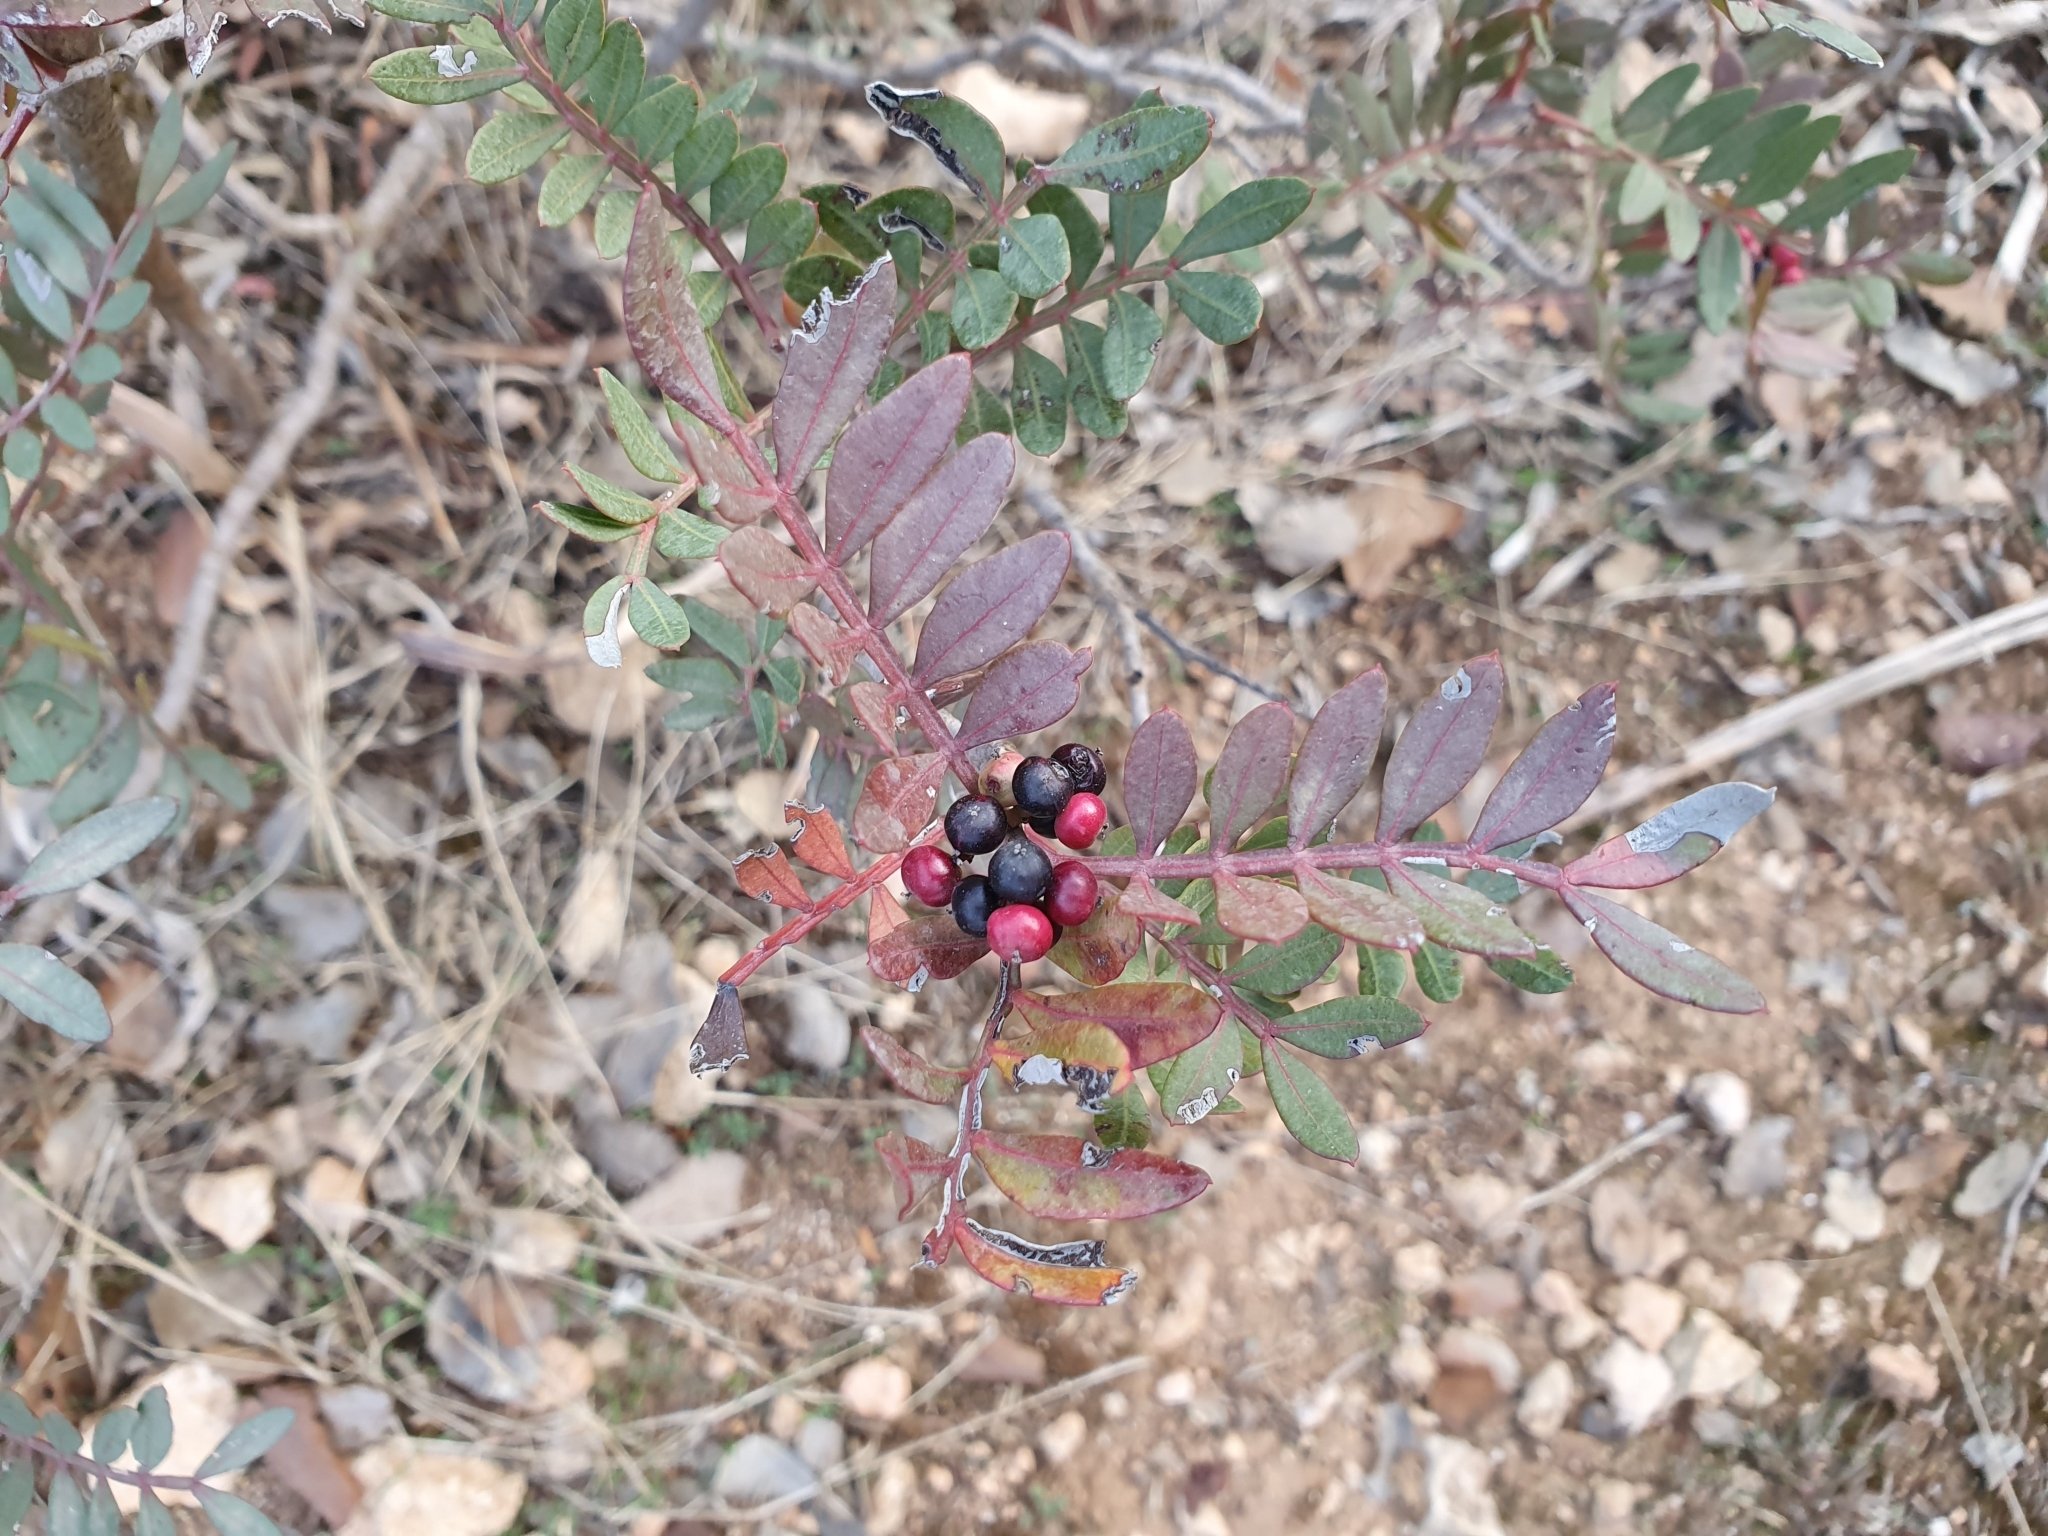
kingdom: Plantae
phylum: Tracheophyta
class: Magnoliopsida
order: Sapindales
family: Anacardiaceae
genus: Pistacia
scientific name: Pistacia lentiscus
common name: Lentisk
